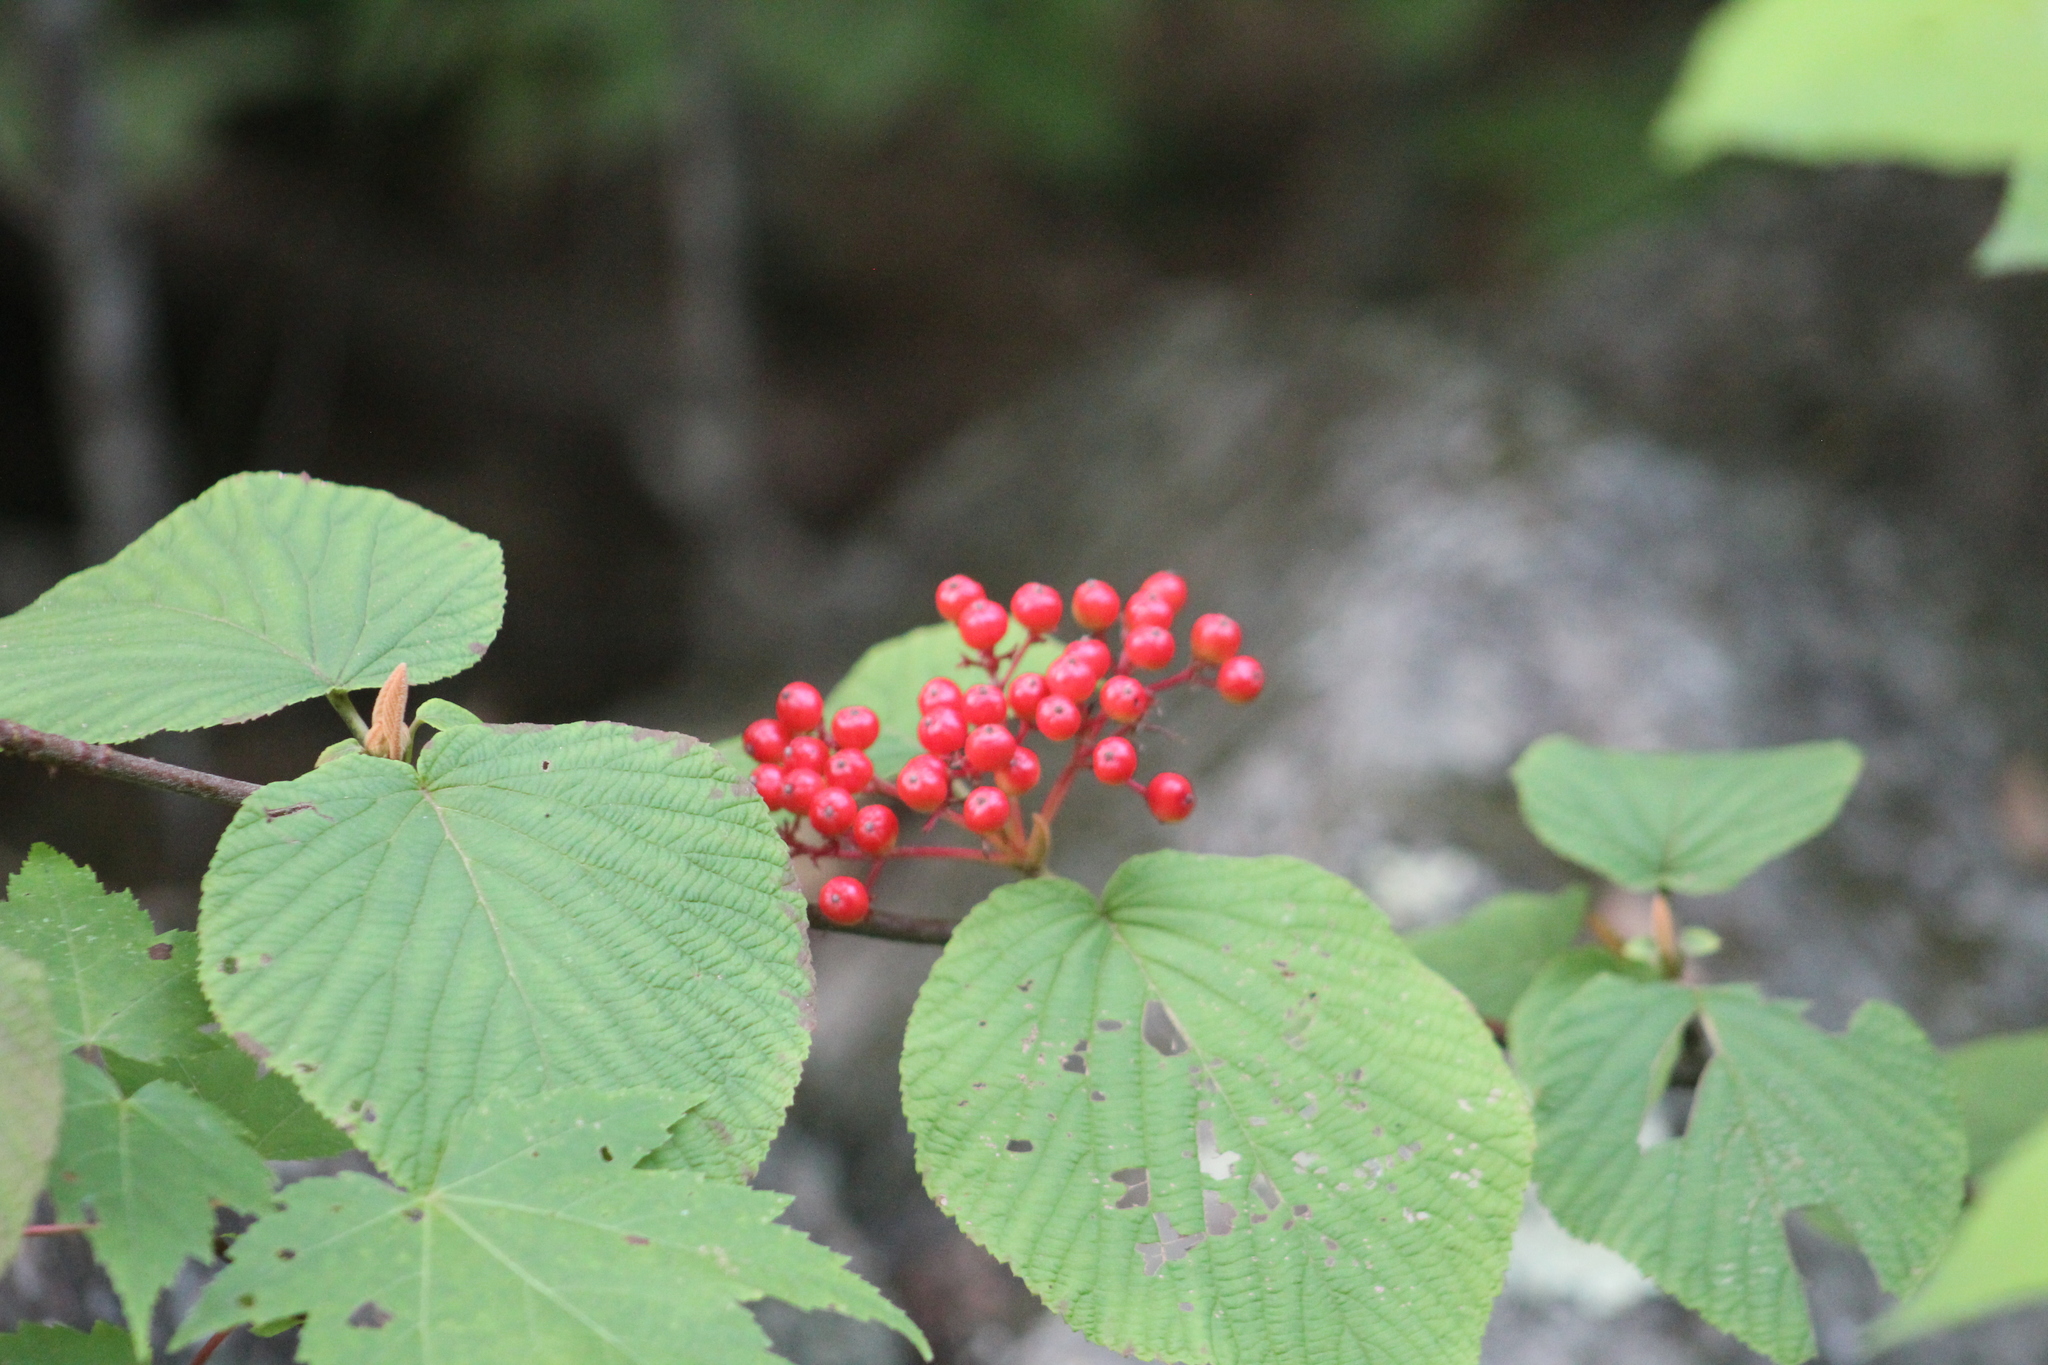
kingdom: Plantae
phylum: Tracheophyta
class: Magnoliopsida
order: Dipsacales
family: Viburnaceae
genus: Viburnum
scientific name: Viburnum lantanoides
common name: Hobblebush
